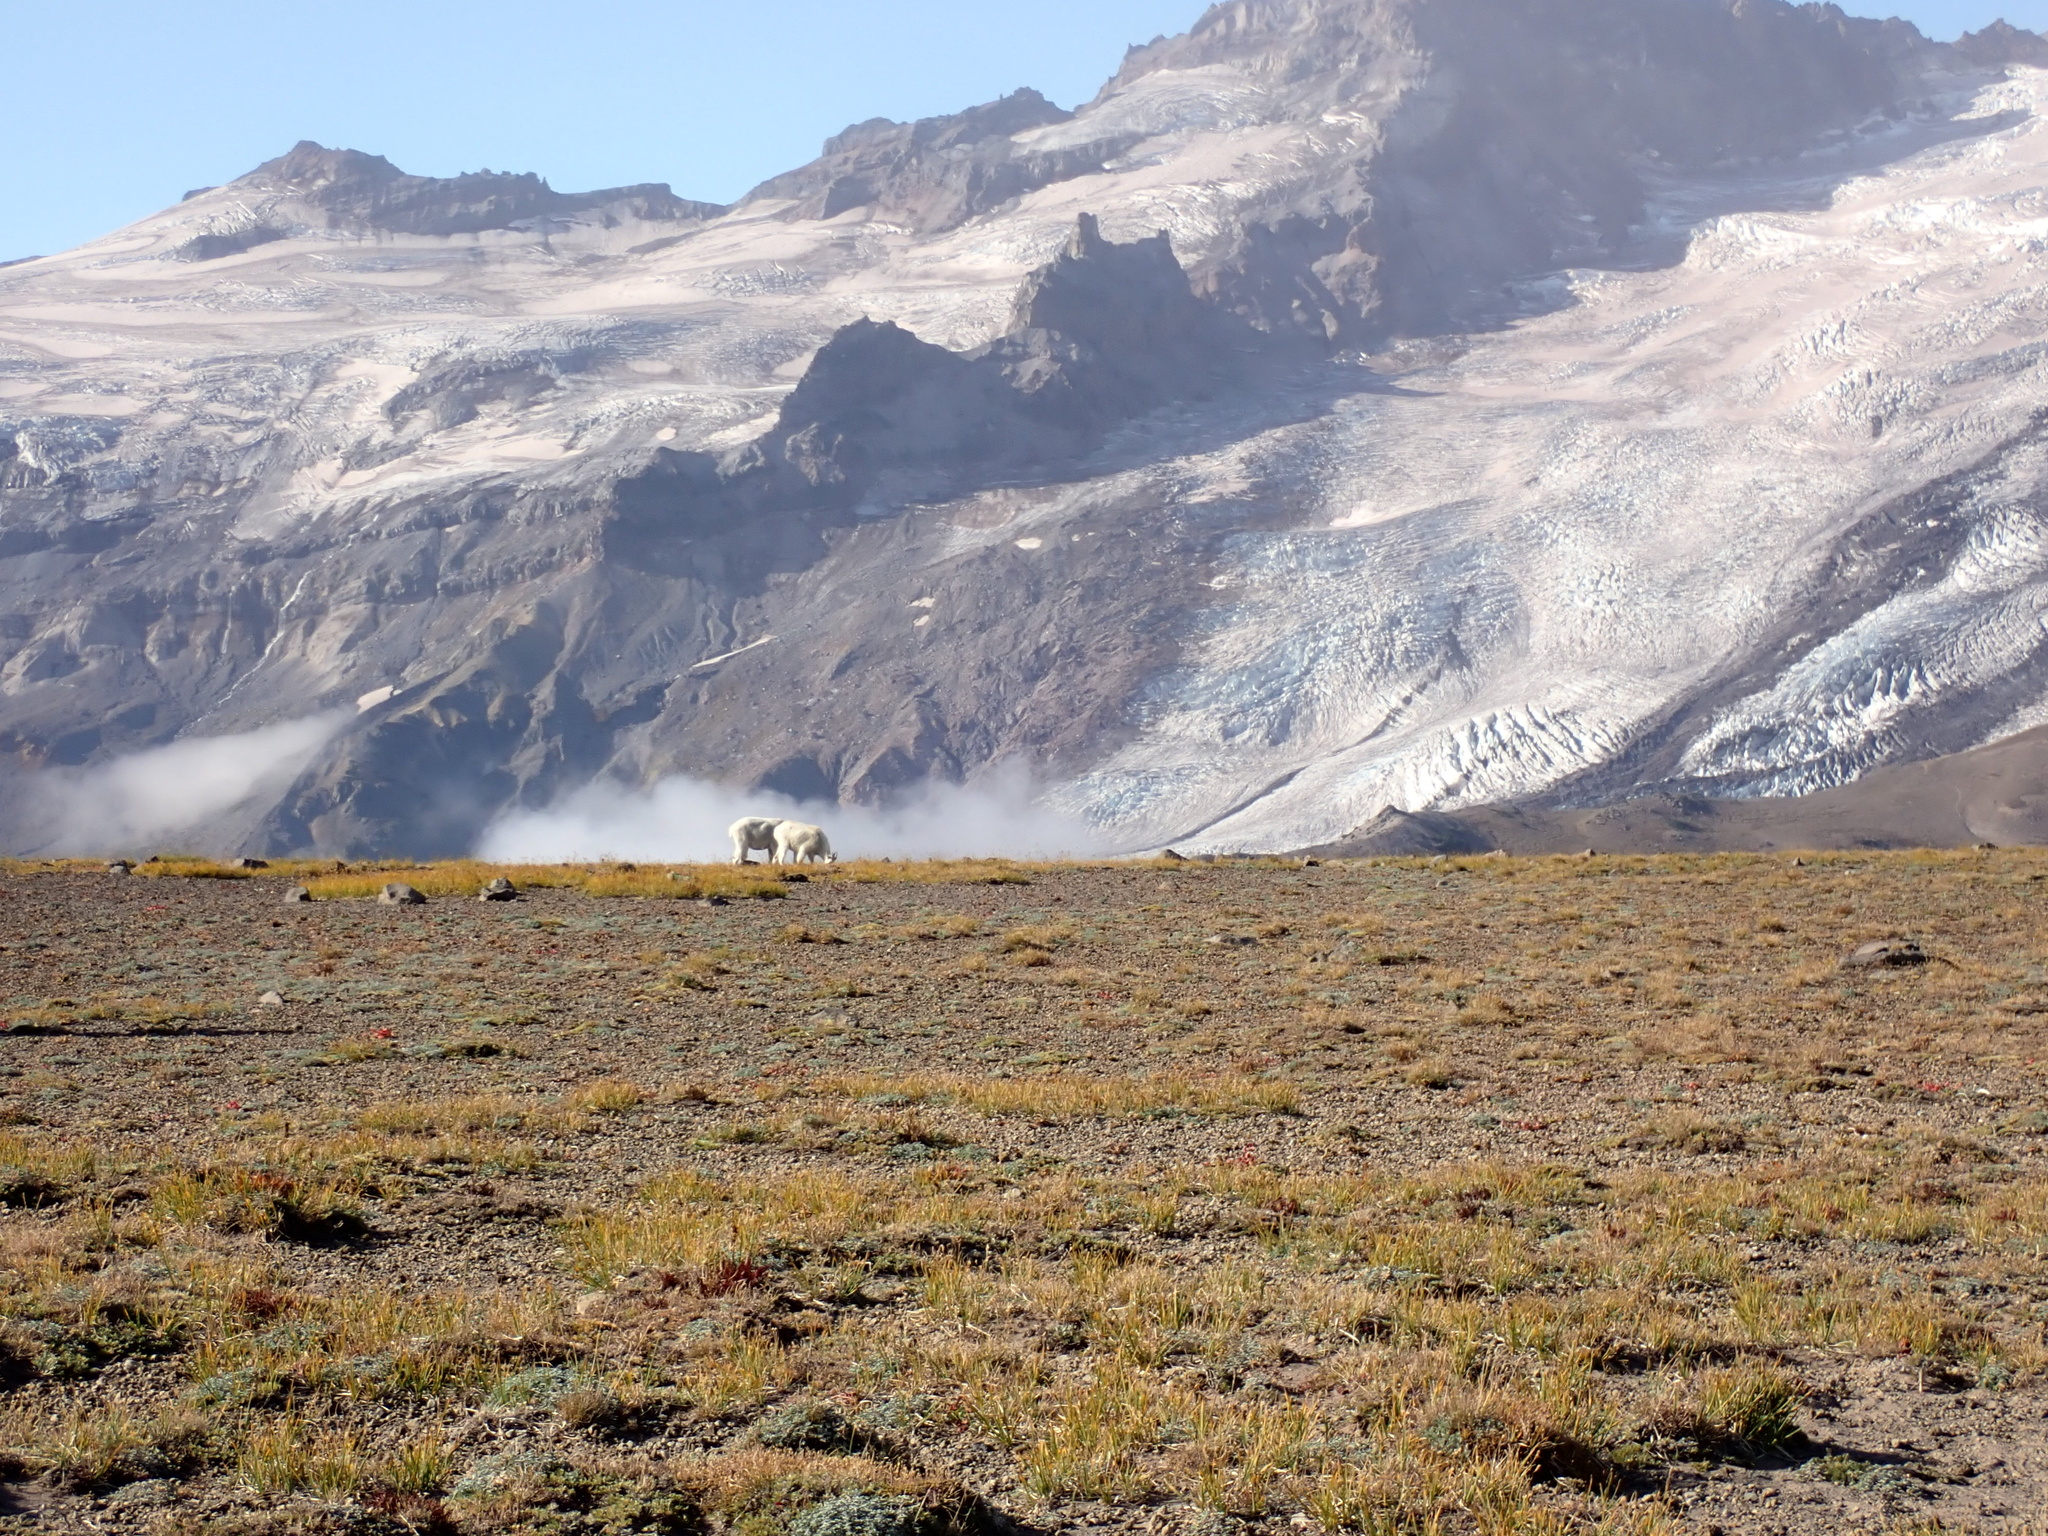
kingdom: Animalia
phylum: Chordata
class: Mammalia
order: Artiodactyla
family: Bovidae
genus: Oreamnos
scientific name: Oreamnos americanus
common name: Mountain goat
